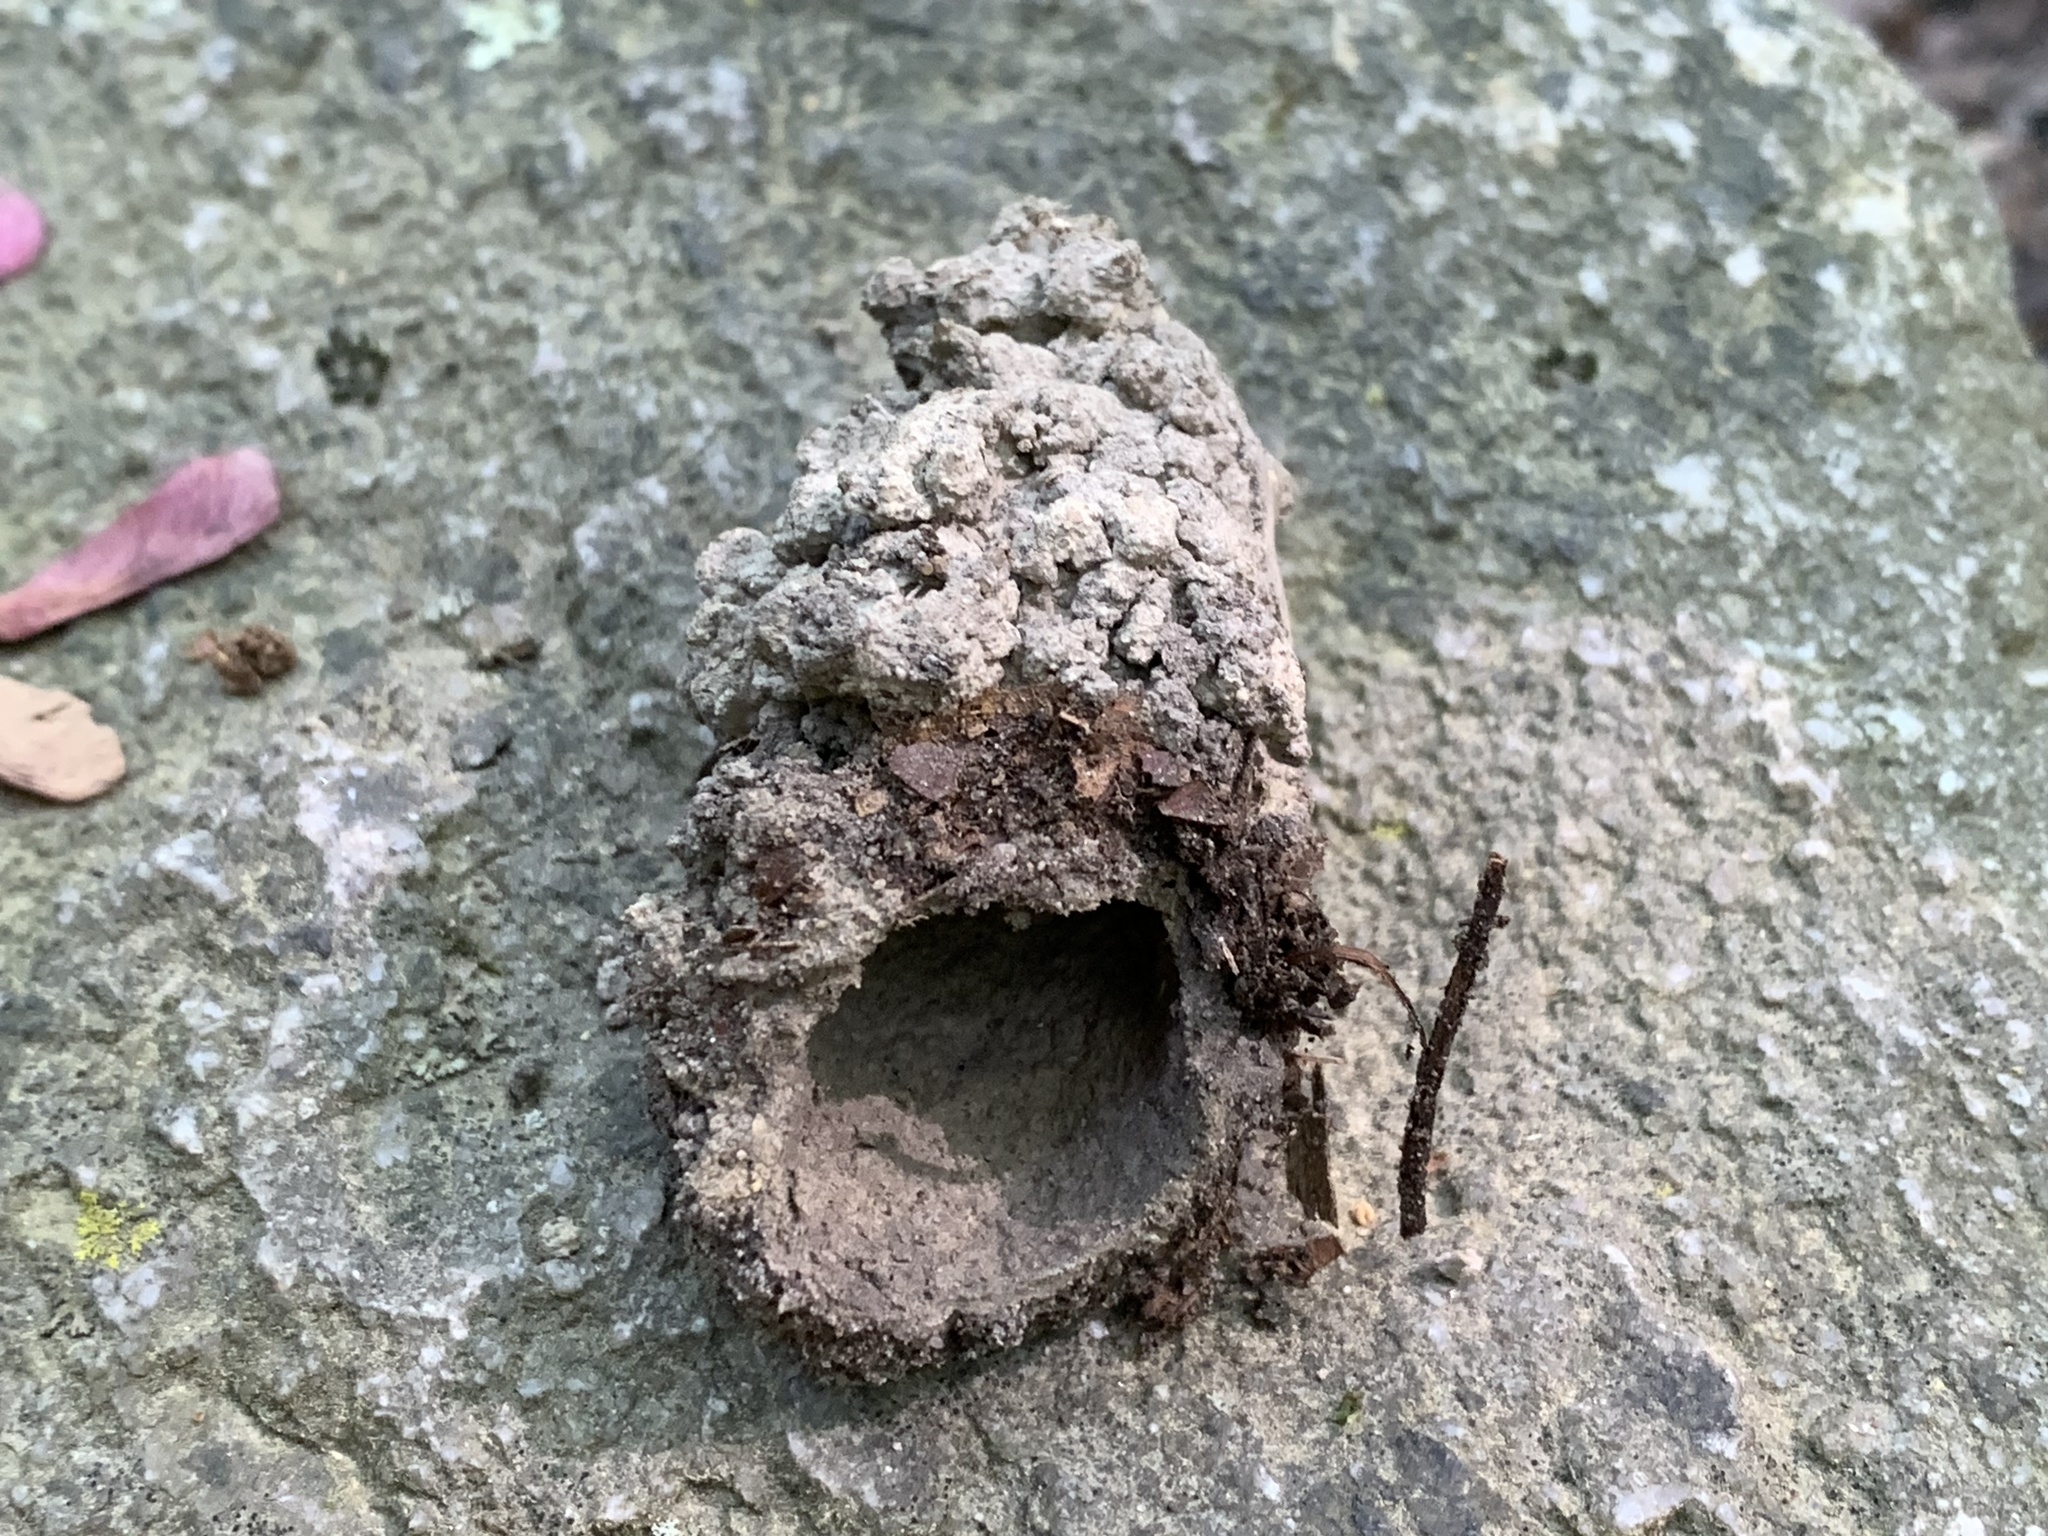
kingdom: Animalia
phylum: Arthropoda
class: Insecta
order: Hemiptera
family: Cicadidae
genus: Magicicada
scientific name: Magicicada
